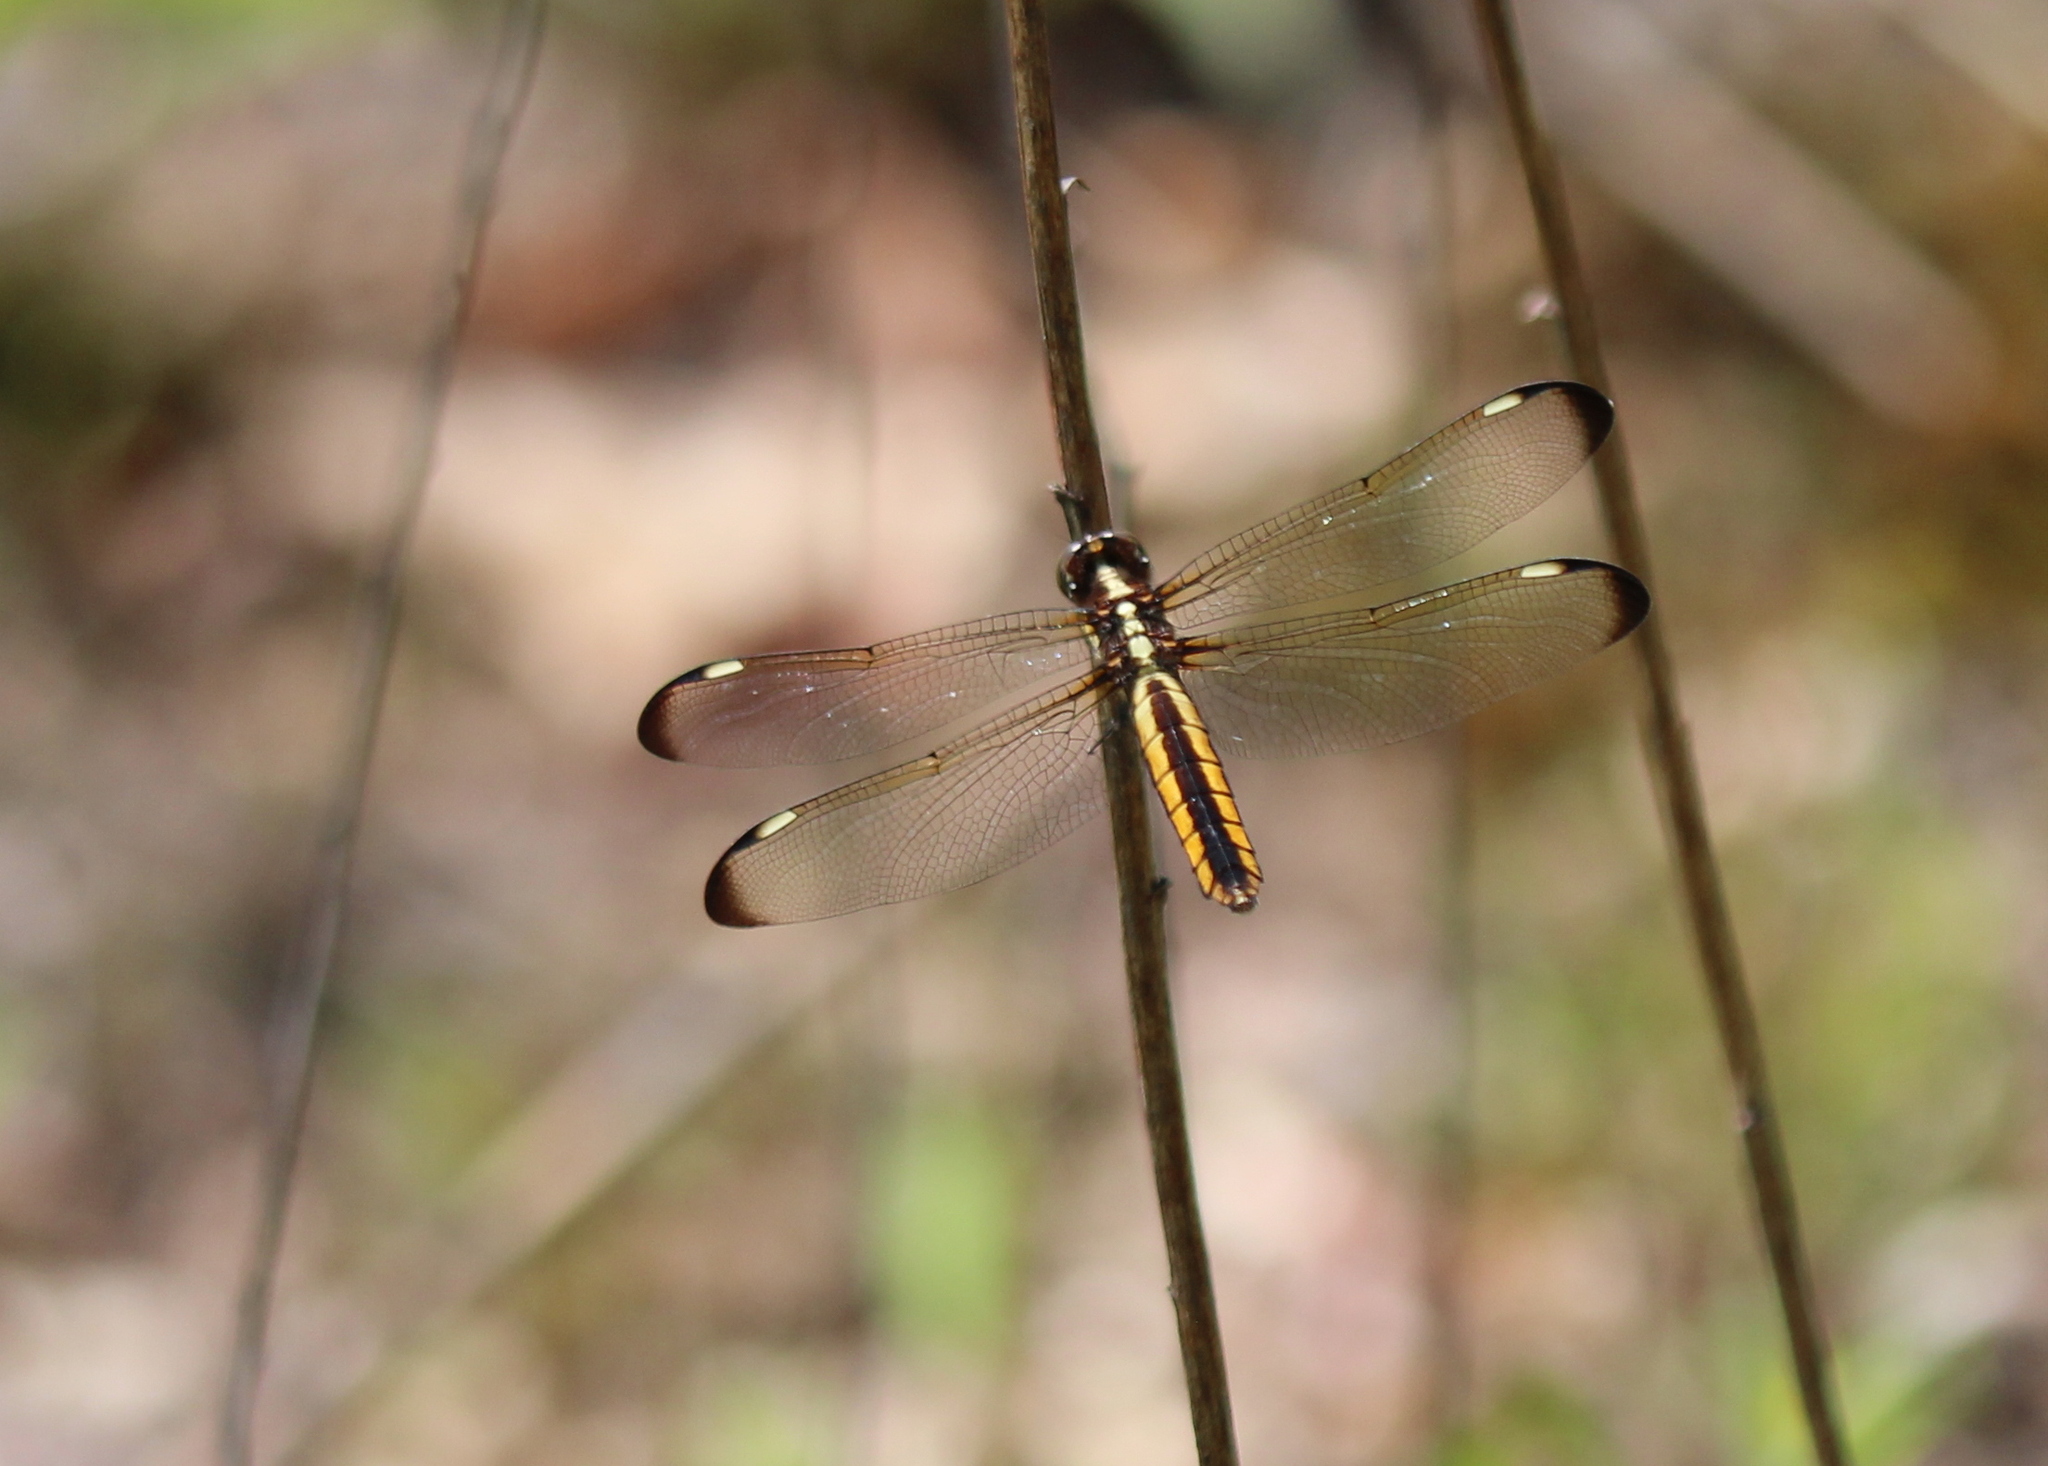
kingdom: Animalia
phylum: Arthropoda
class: Insecta
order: Odonata
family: Libellulidae
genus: Libellula
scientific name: Libellula cyanea
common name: Spangled skimmer
